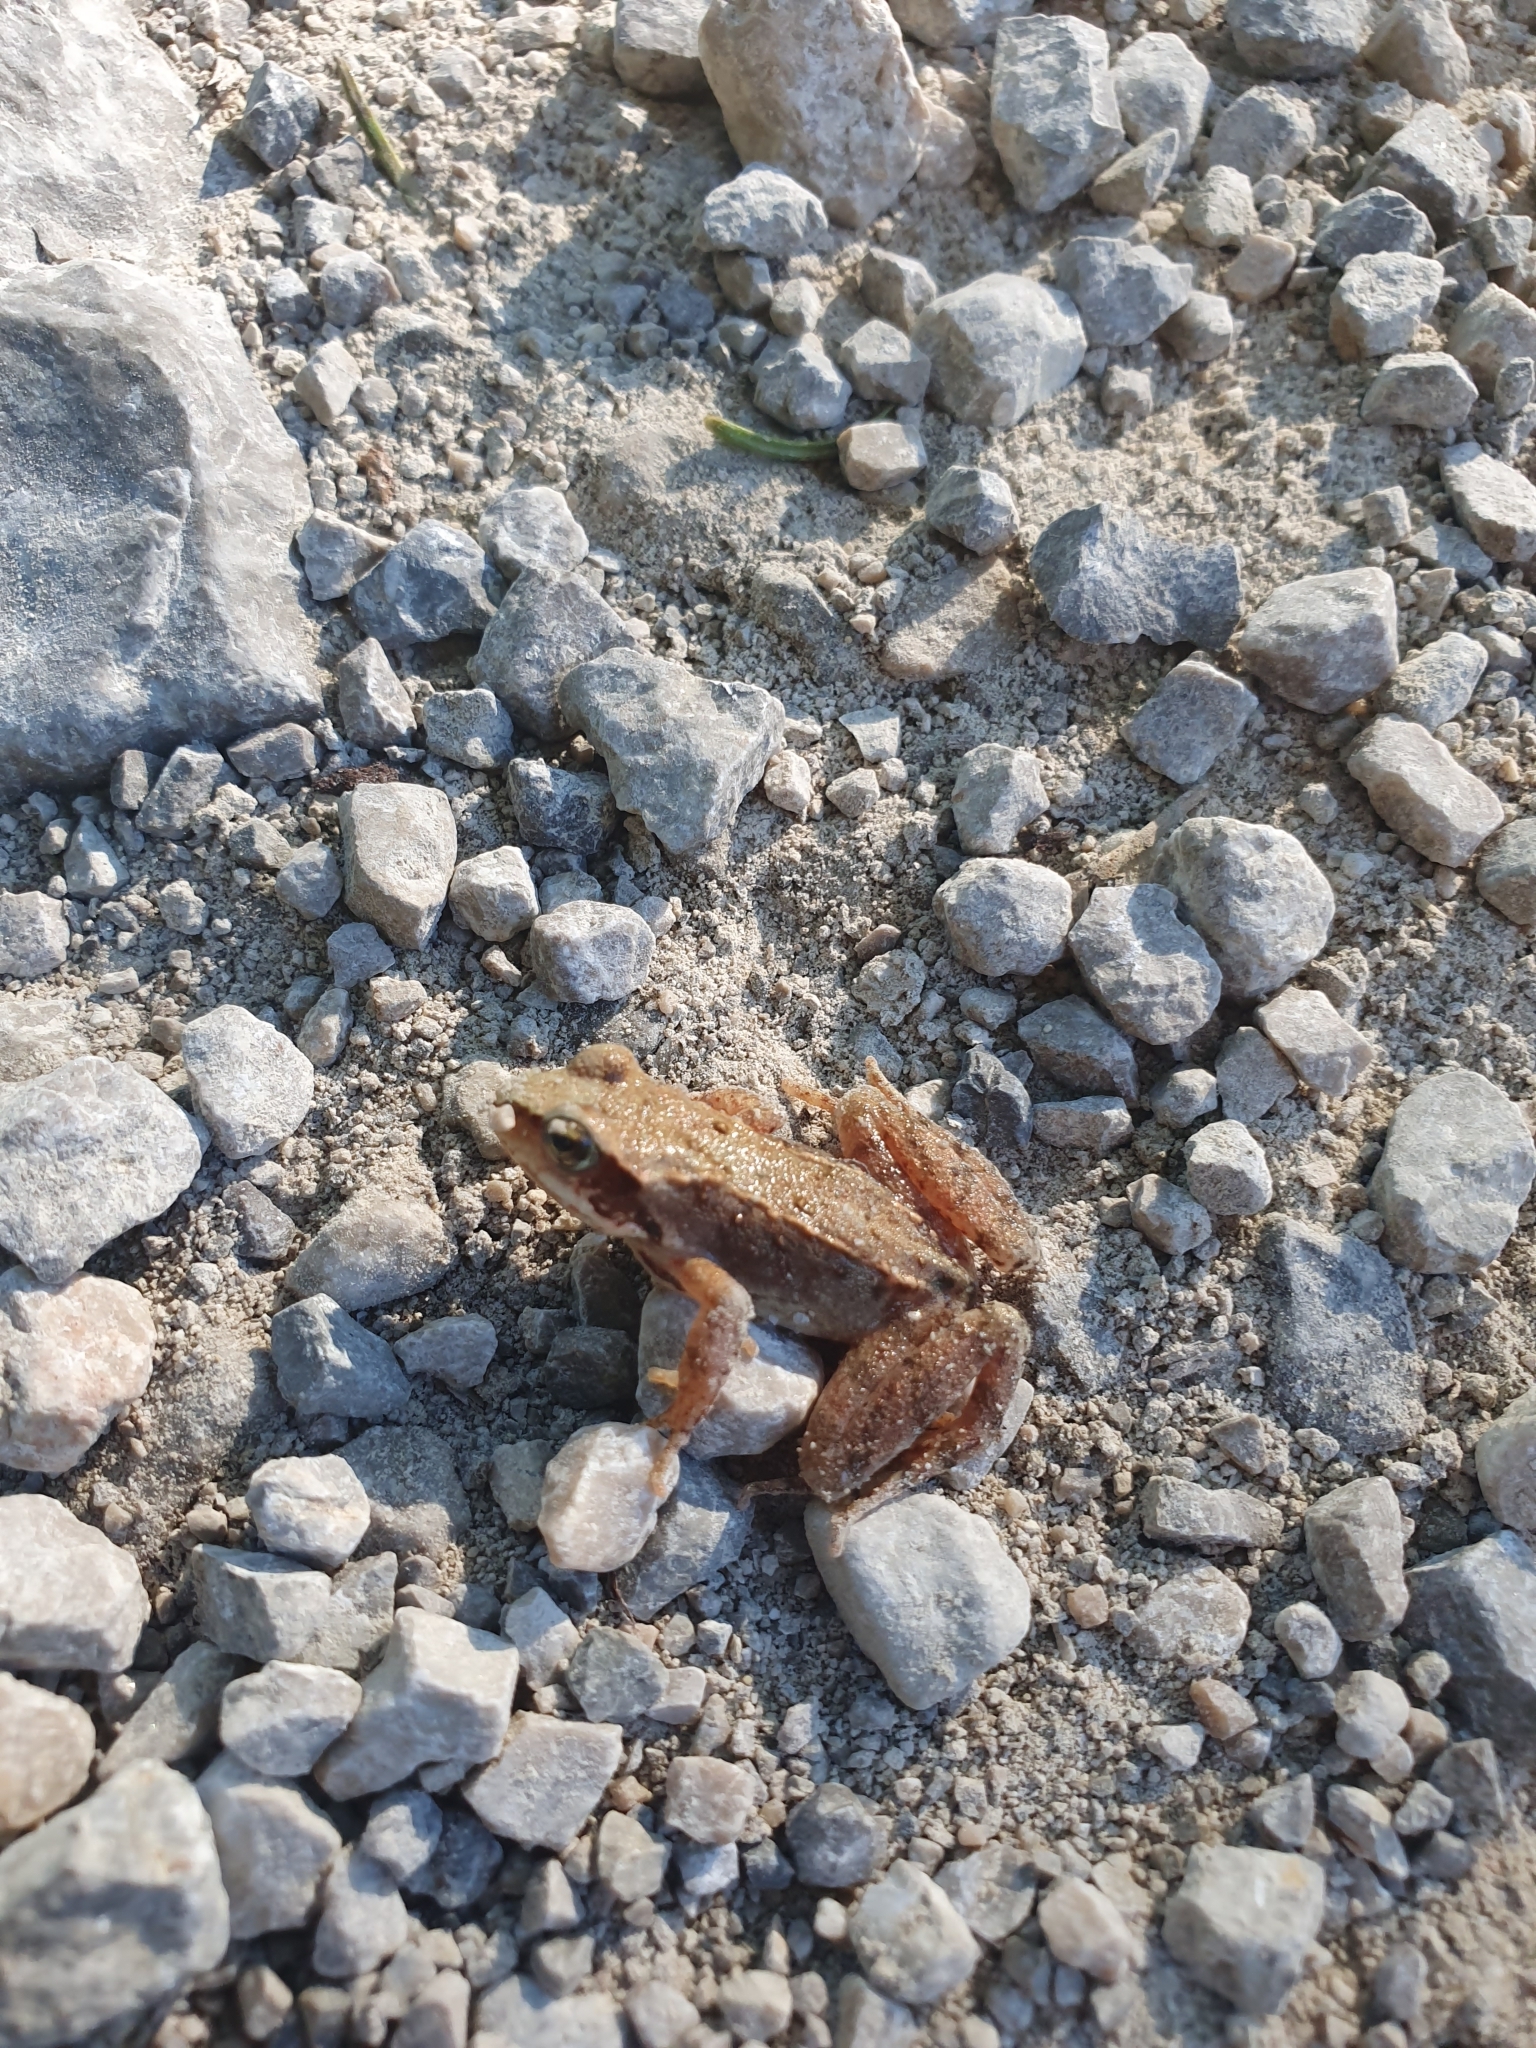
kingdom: Animalia
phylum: Chordata
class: Amphibia
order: Anura
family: Ranidae
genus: Rana
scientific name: Rana temporaria
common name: Common frog
